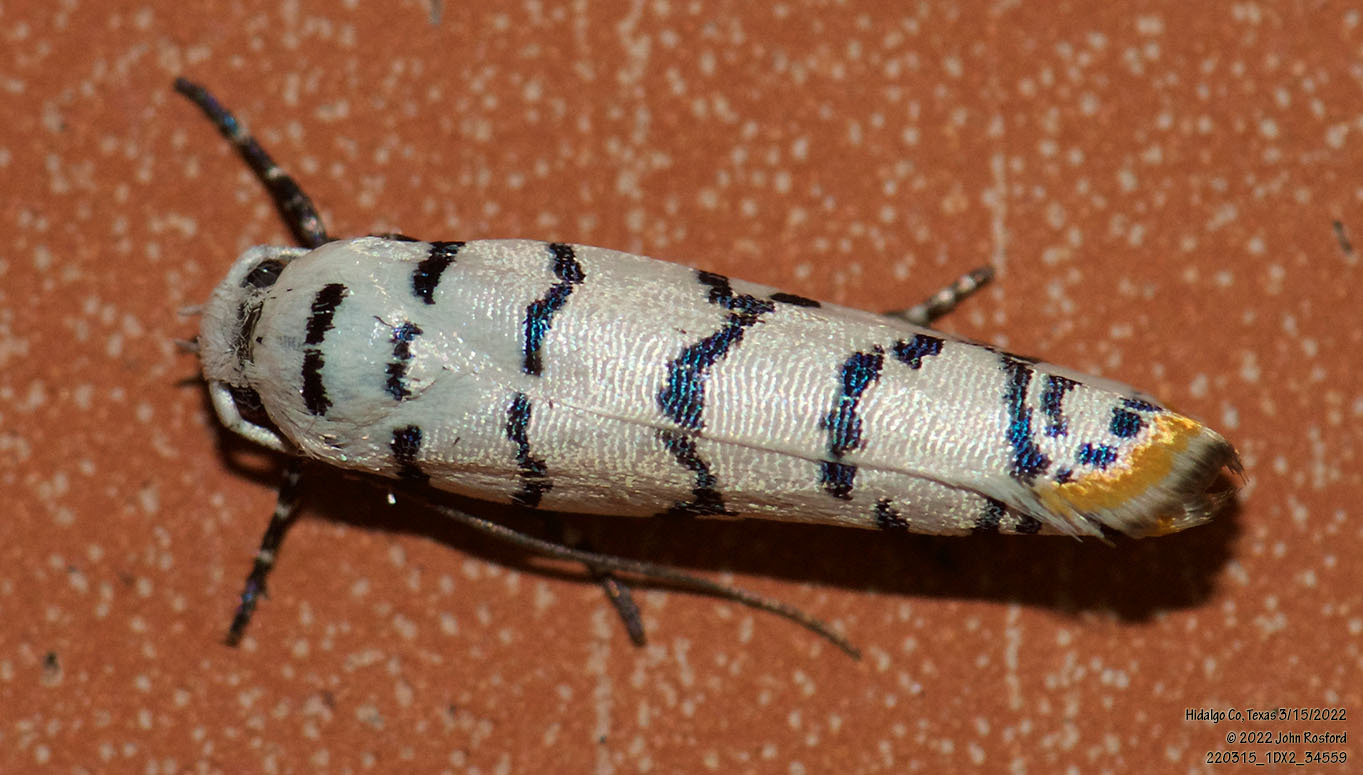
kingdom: Animalia
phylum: Arthropoda
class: Insecta
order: Lepidoptera
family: Ethmiidae
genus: Ethmia
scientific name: Ethmia delliella
